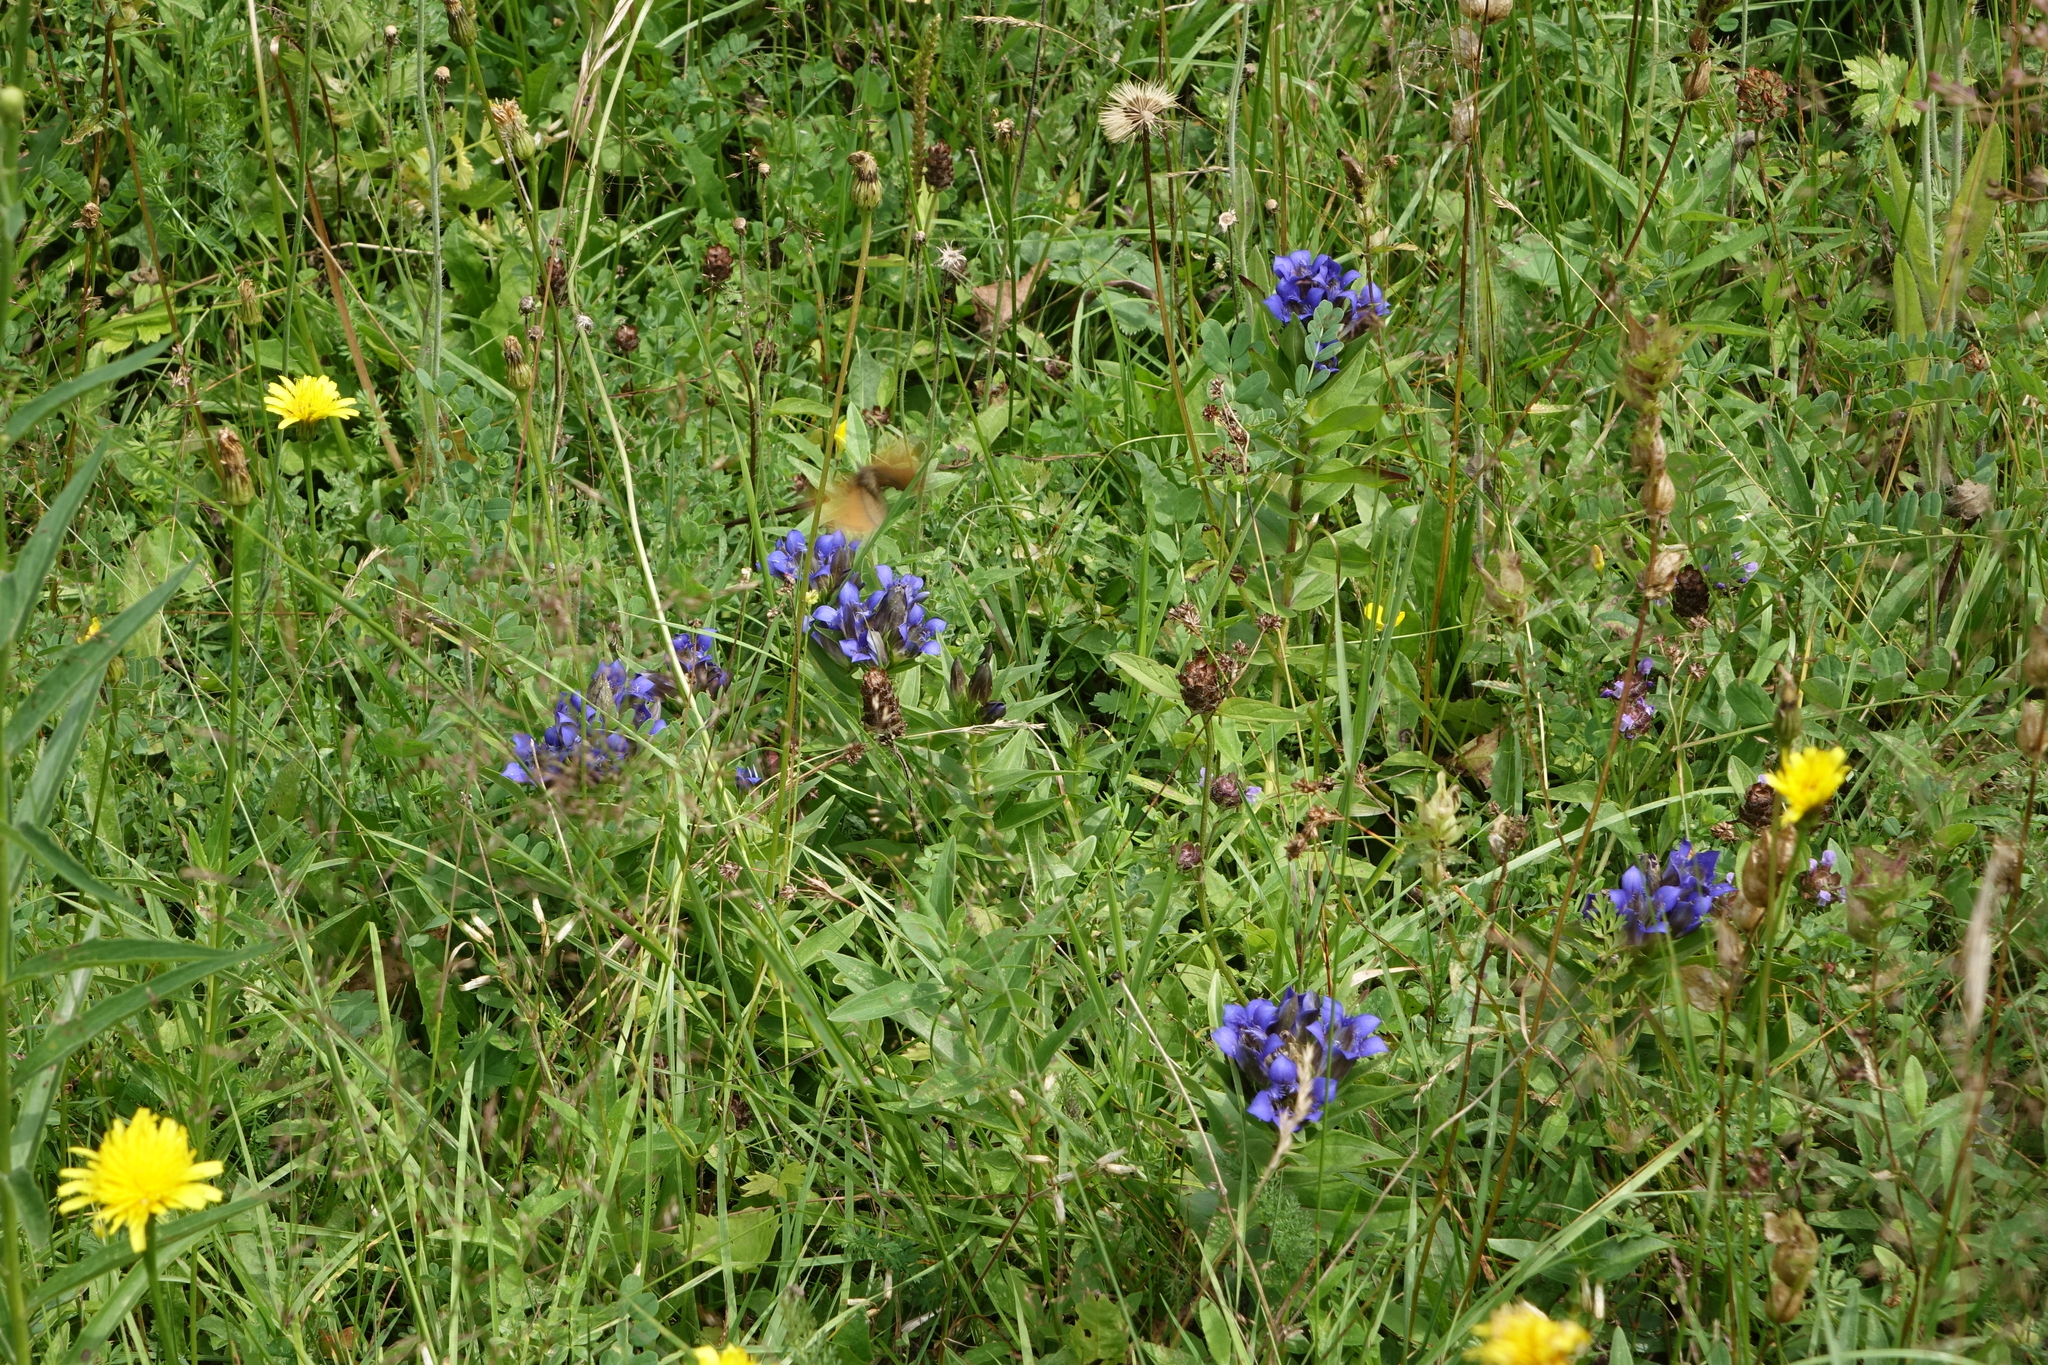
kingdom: Plantae
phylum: Tracheophyta
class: Magnoliopsida
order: Gentianales
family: Gentianaceae
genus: Gentiana
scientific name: Gentiana septemfida
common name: Crested gentian
